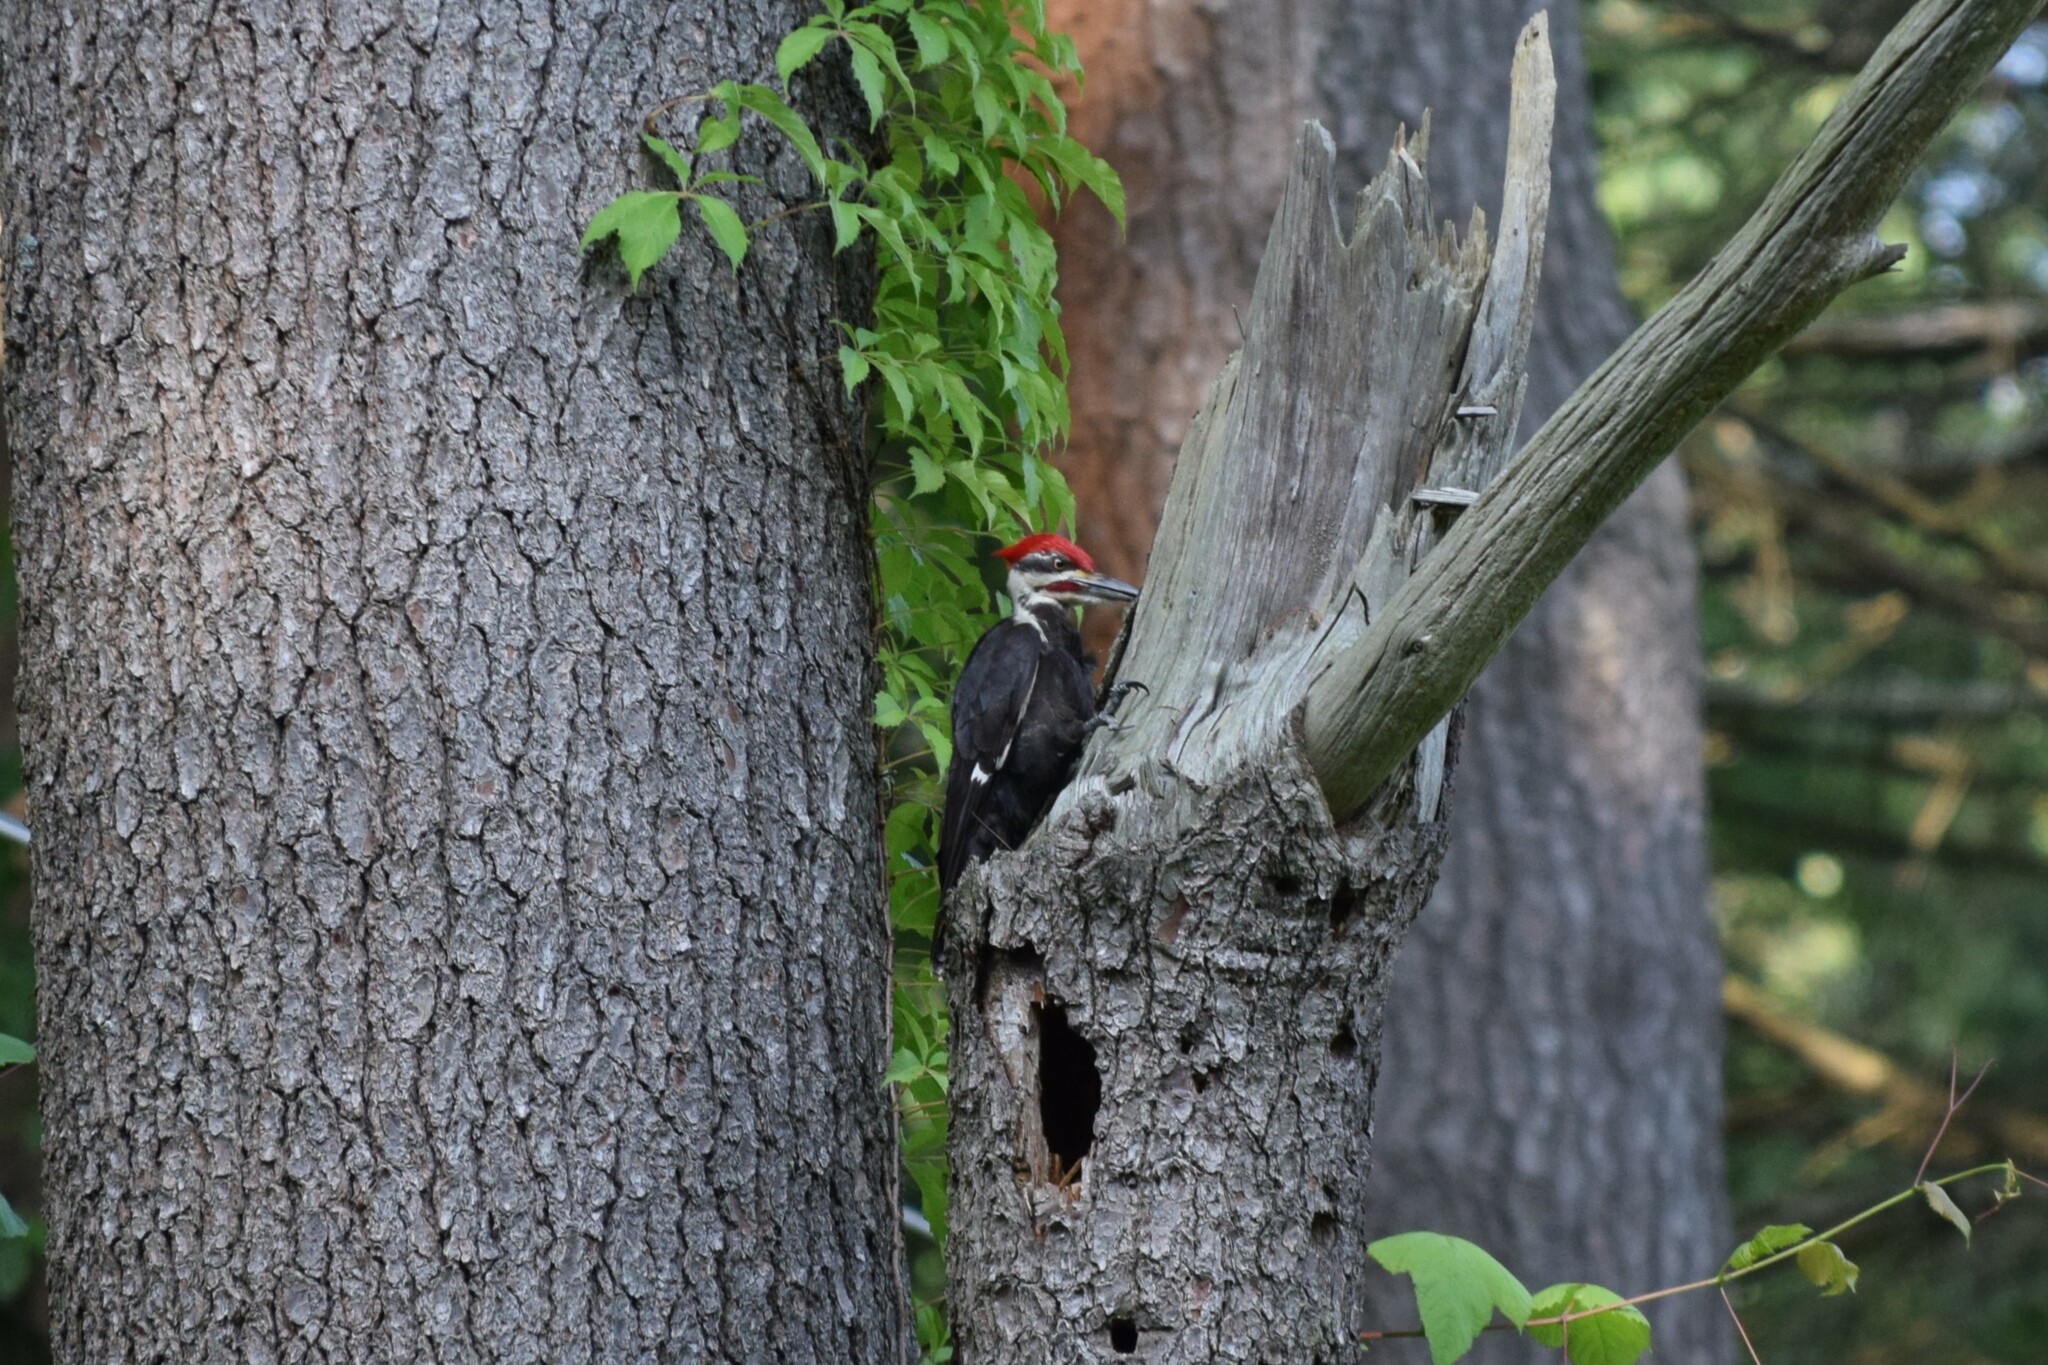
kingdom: Animalia
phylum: Chordata
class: Aves
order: Piciformes
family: Picidae
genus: Dryocopus
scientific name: Dryocopus pileatus
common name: Pileated woodpecker
